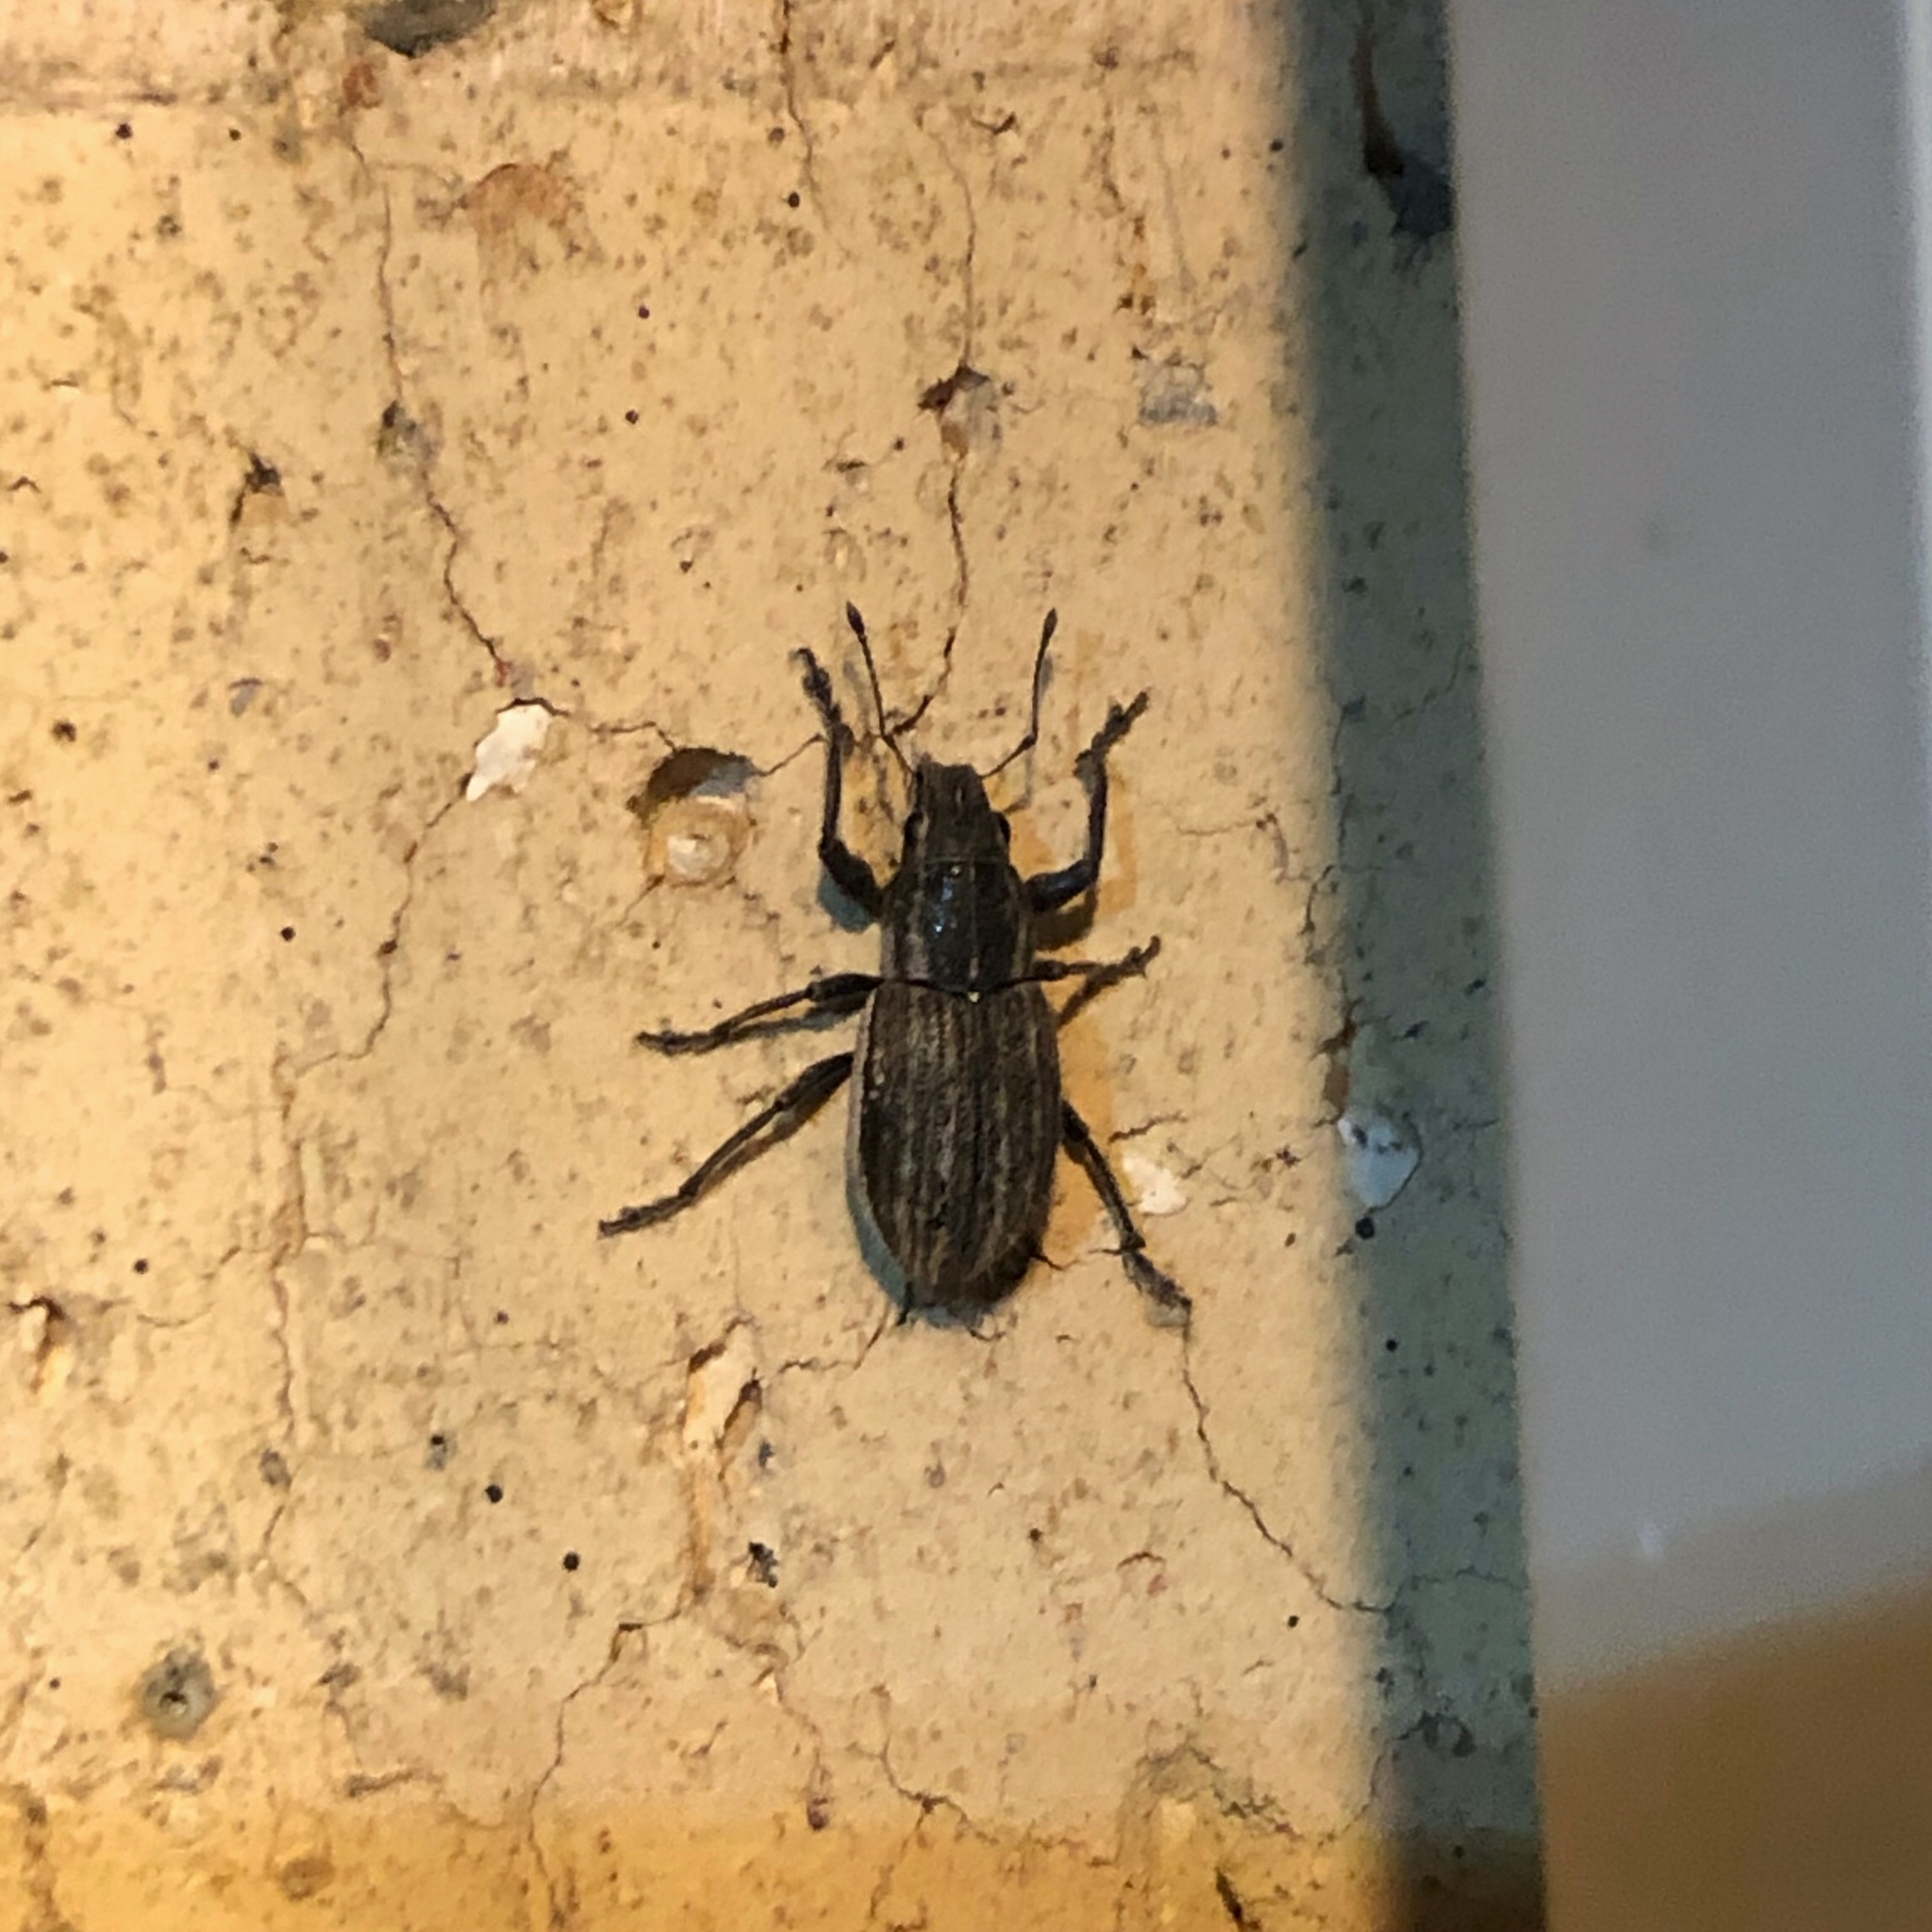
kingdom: Animalia
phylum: Arthropoda
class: Insecta
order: Coleoptera
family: Curculionidae
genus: Naupactus
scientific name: Naupactus leucoloma
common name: Whitefringed beetle
